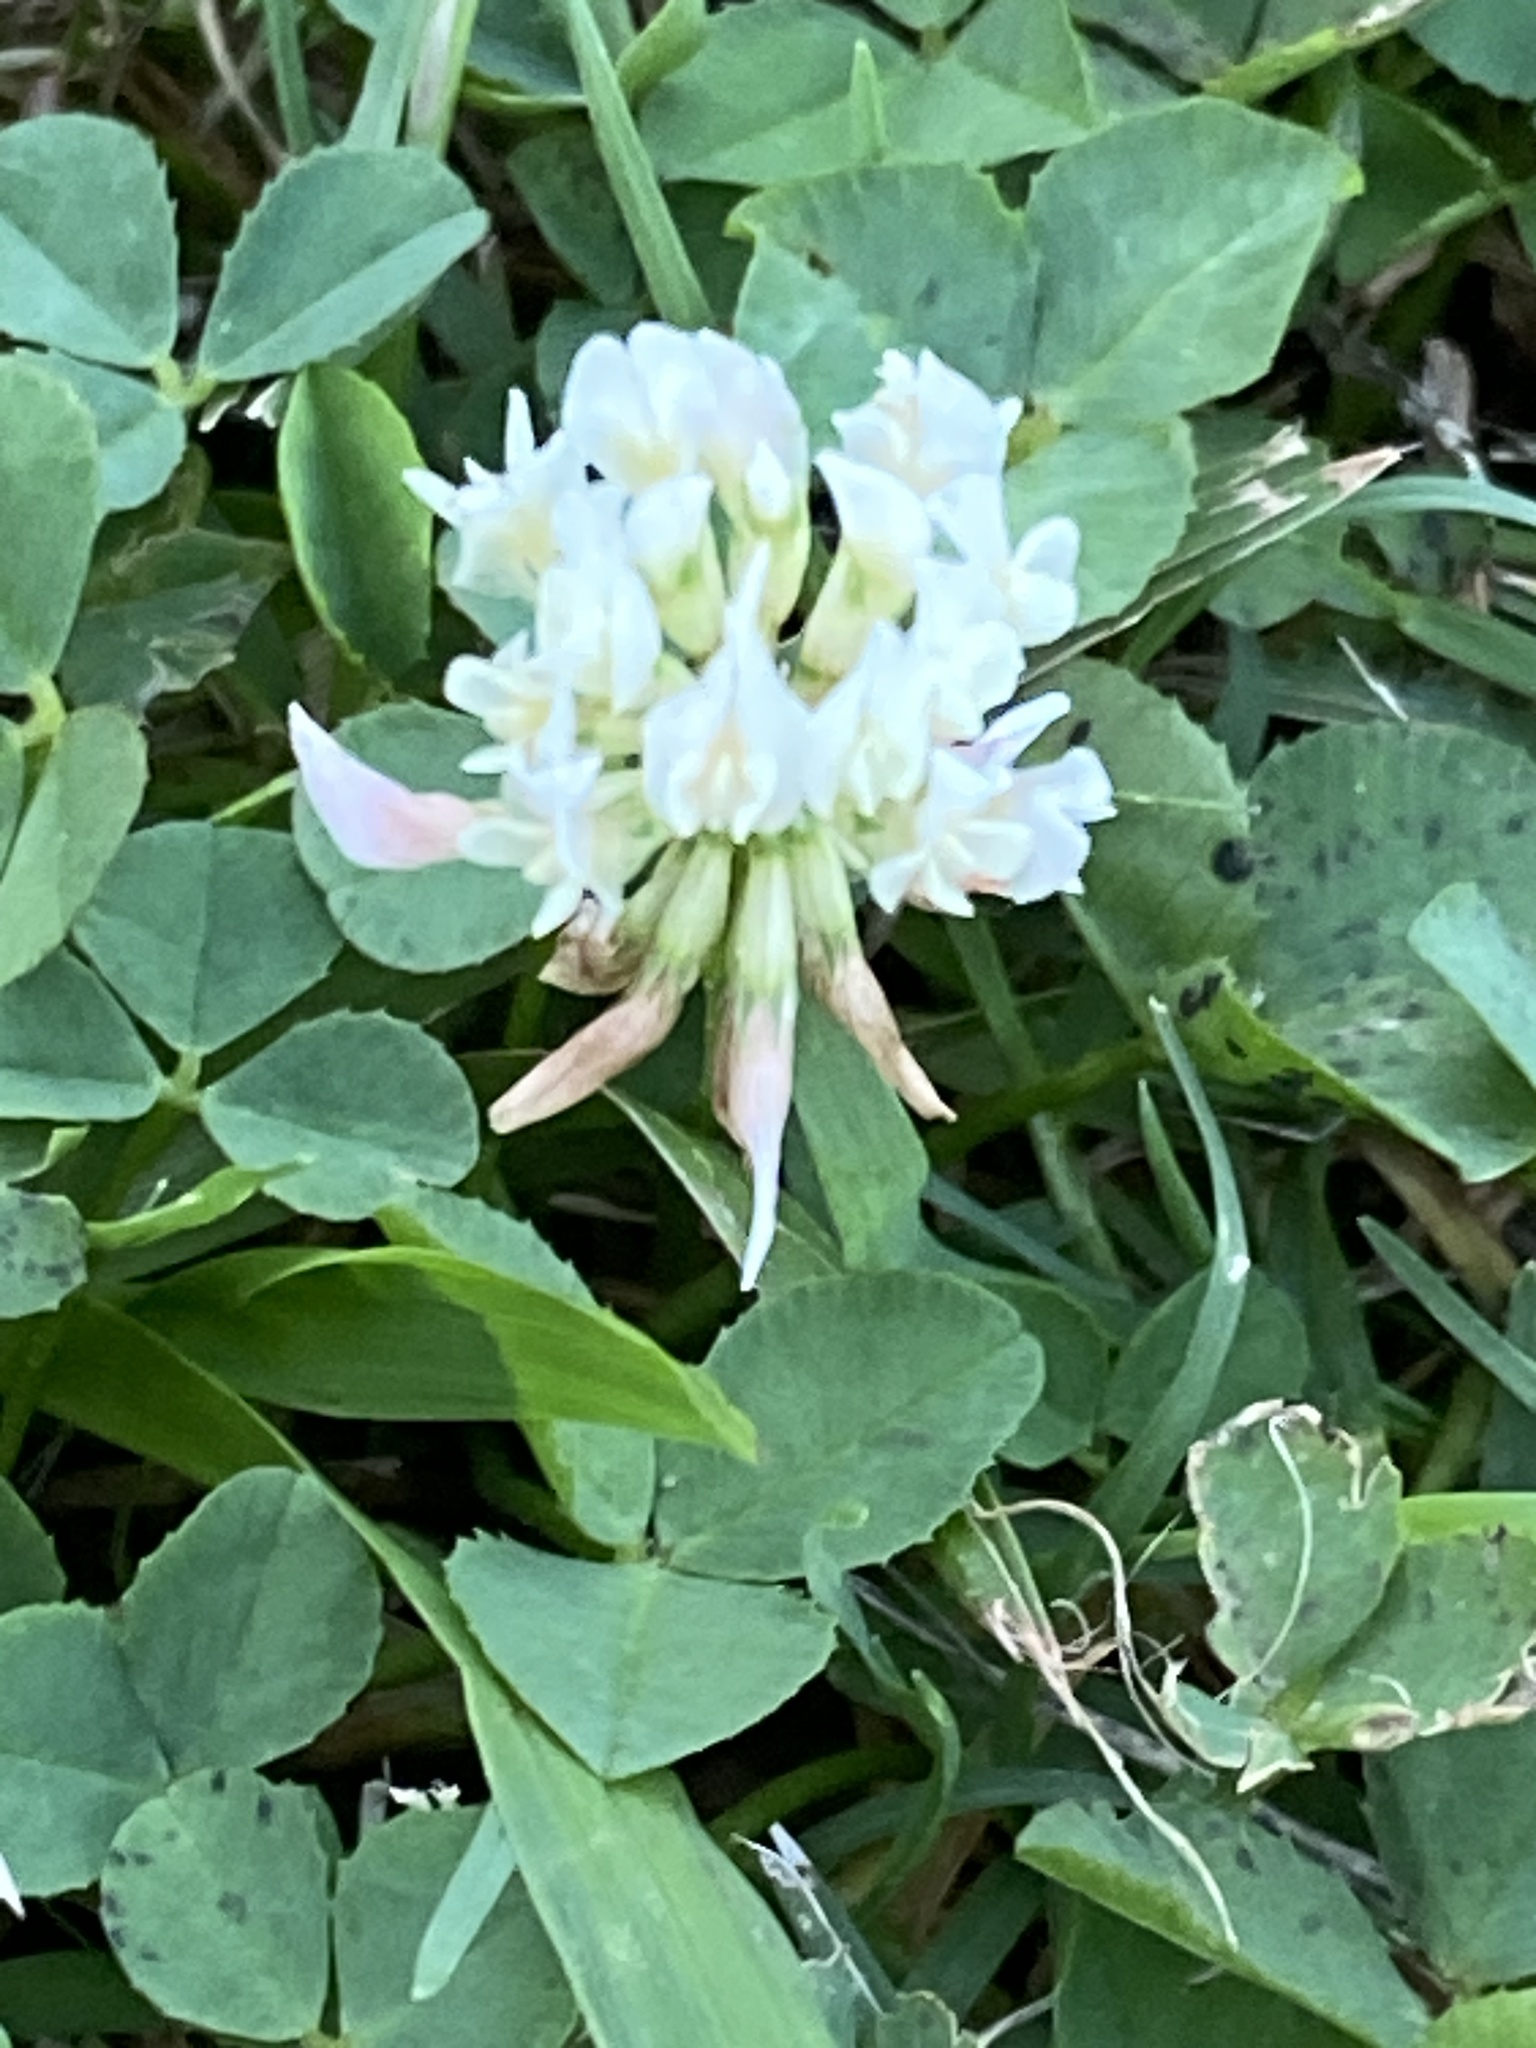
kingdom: Plantae
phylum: Tracheophyta
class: Magnoliopsida
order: Fabales
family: Fabaceae
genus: Trifolium
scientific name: Trifolium repens
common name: White clover
